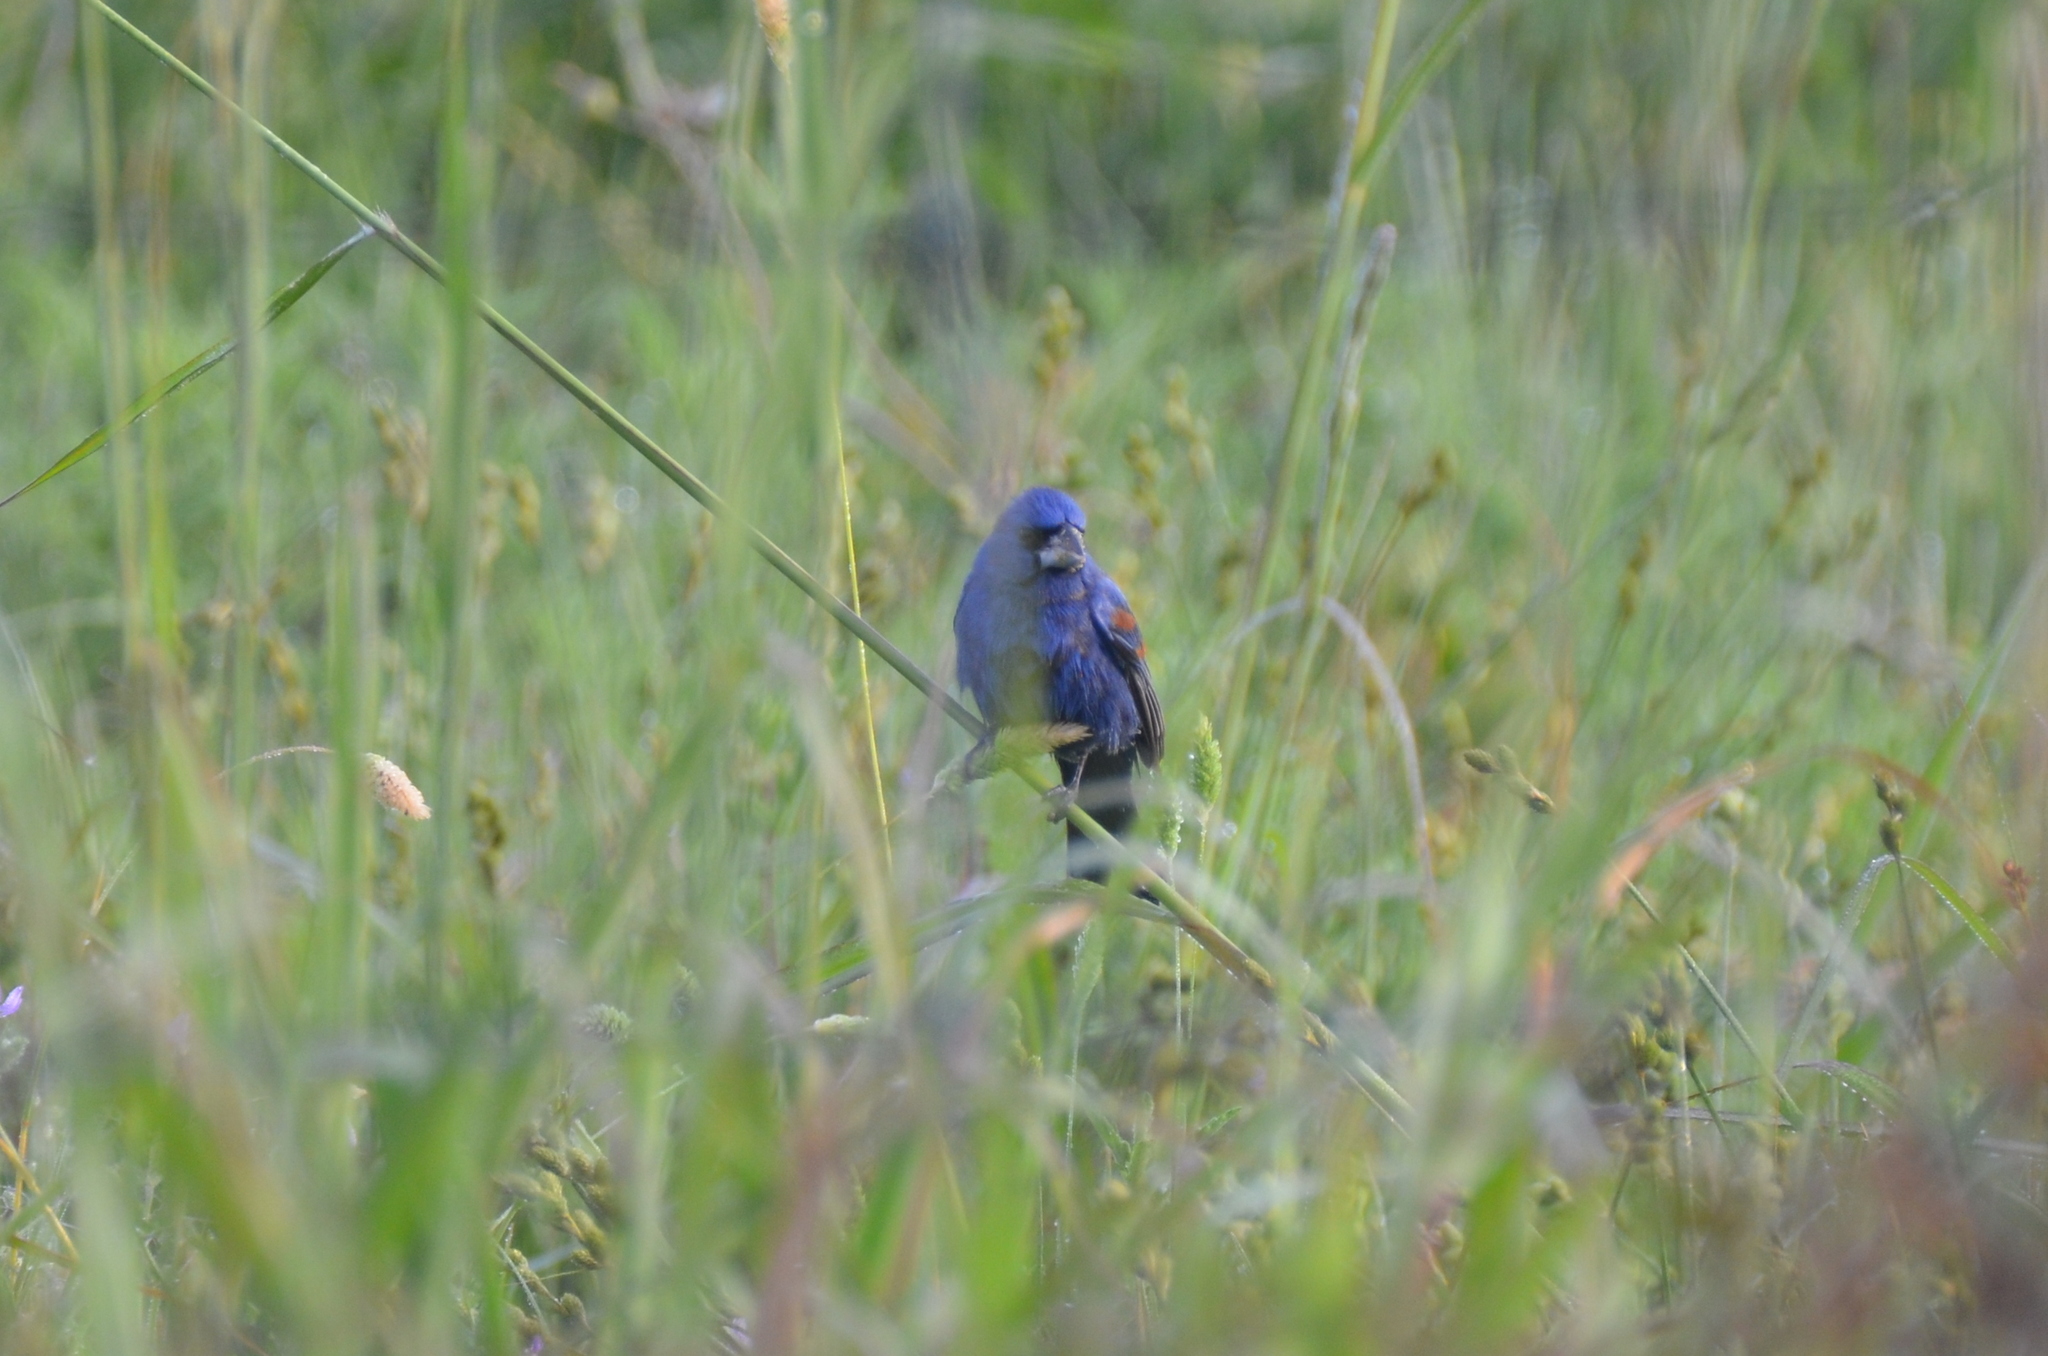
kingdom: Animalia
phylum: Chordata
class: Aves
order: Passeriformes
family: Cardinalidae
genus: Passerina
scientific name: Passerina caerulea
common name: Blue grosbeak
